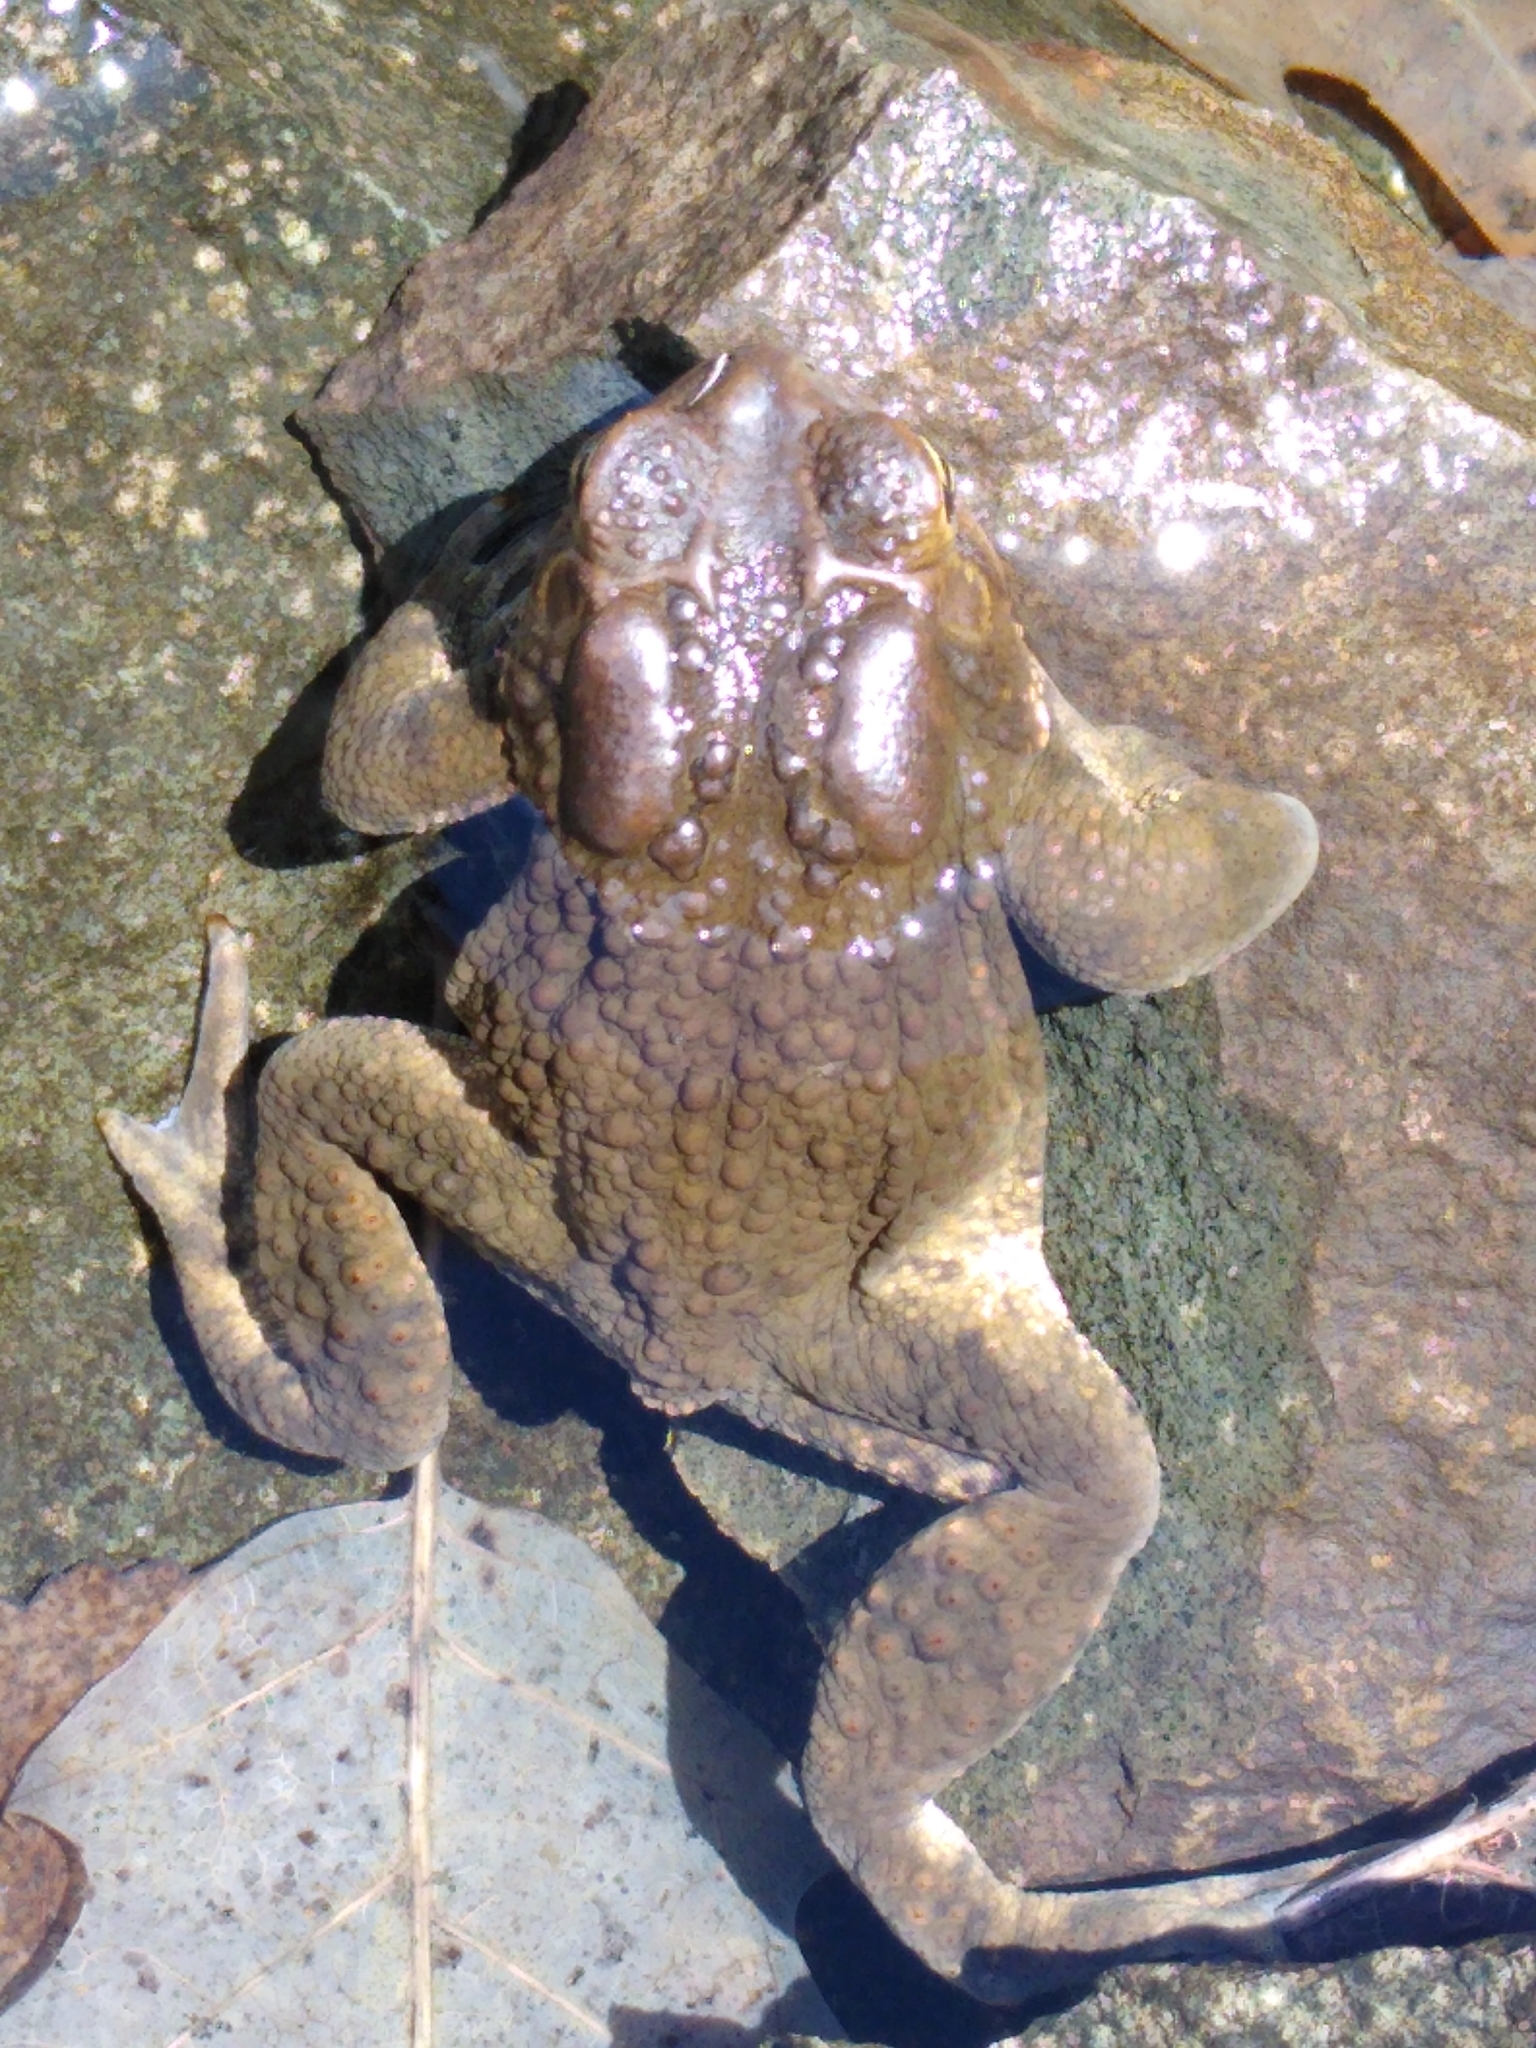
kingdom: Animalia
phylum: Chordata
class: Amphibia
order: Anura
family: Bufonidae
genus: Anaxyrus
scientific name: Anaxyrus americanus
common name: American toad
